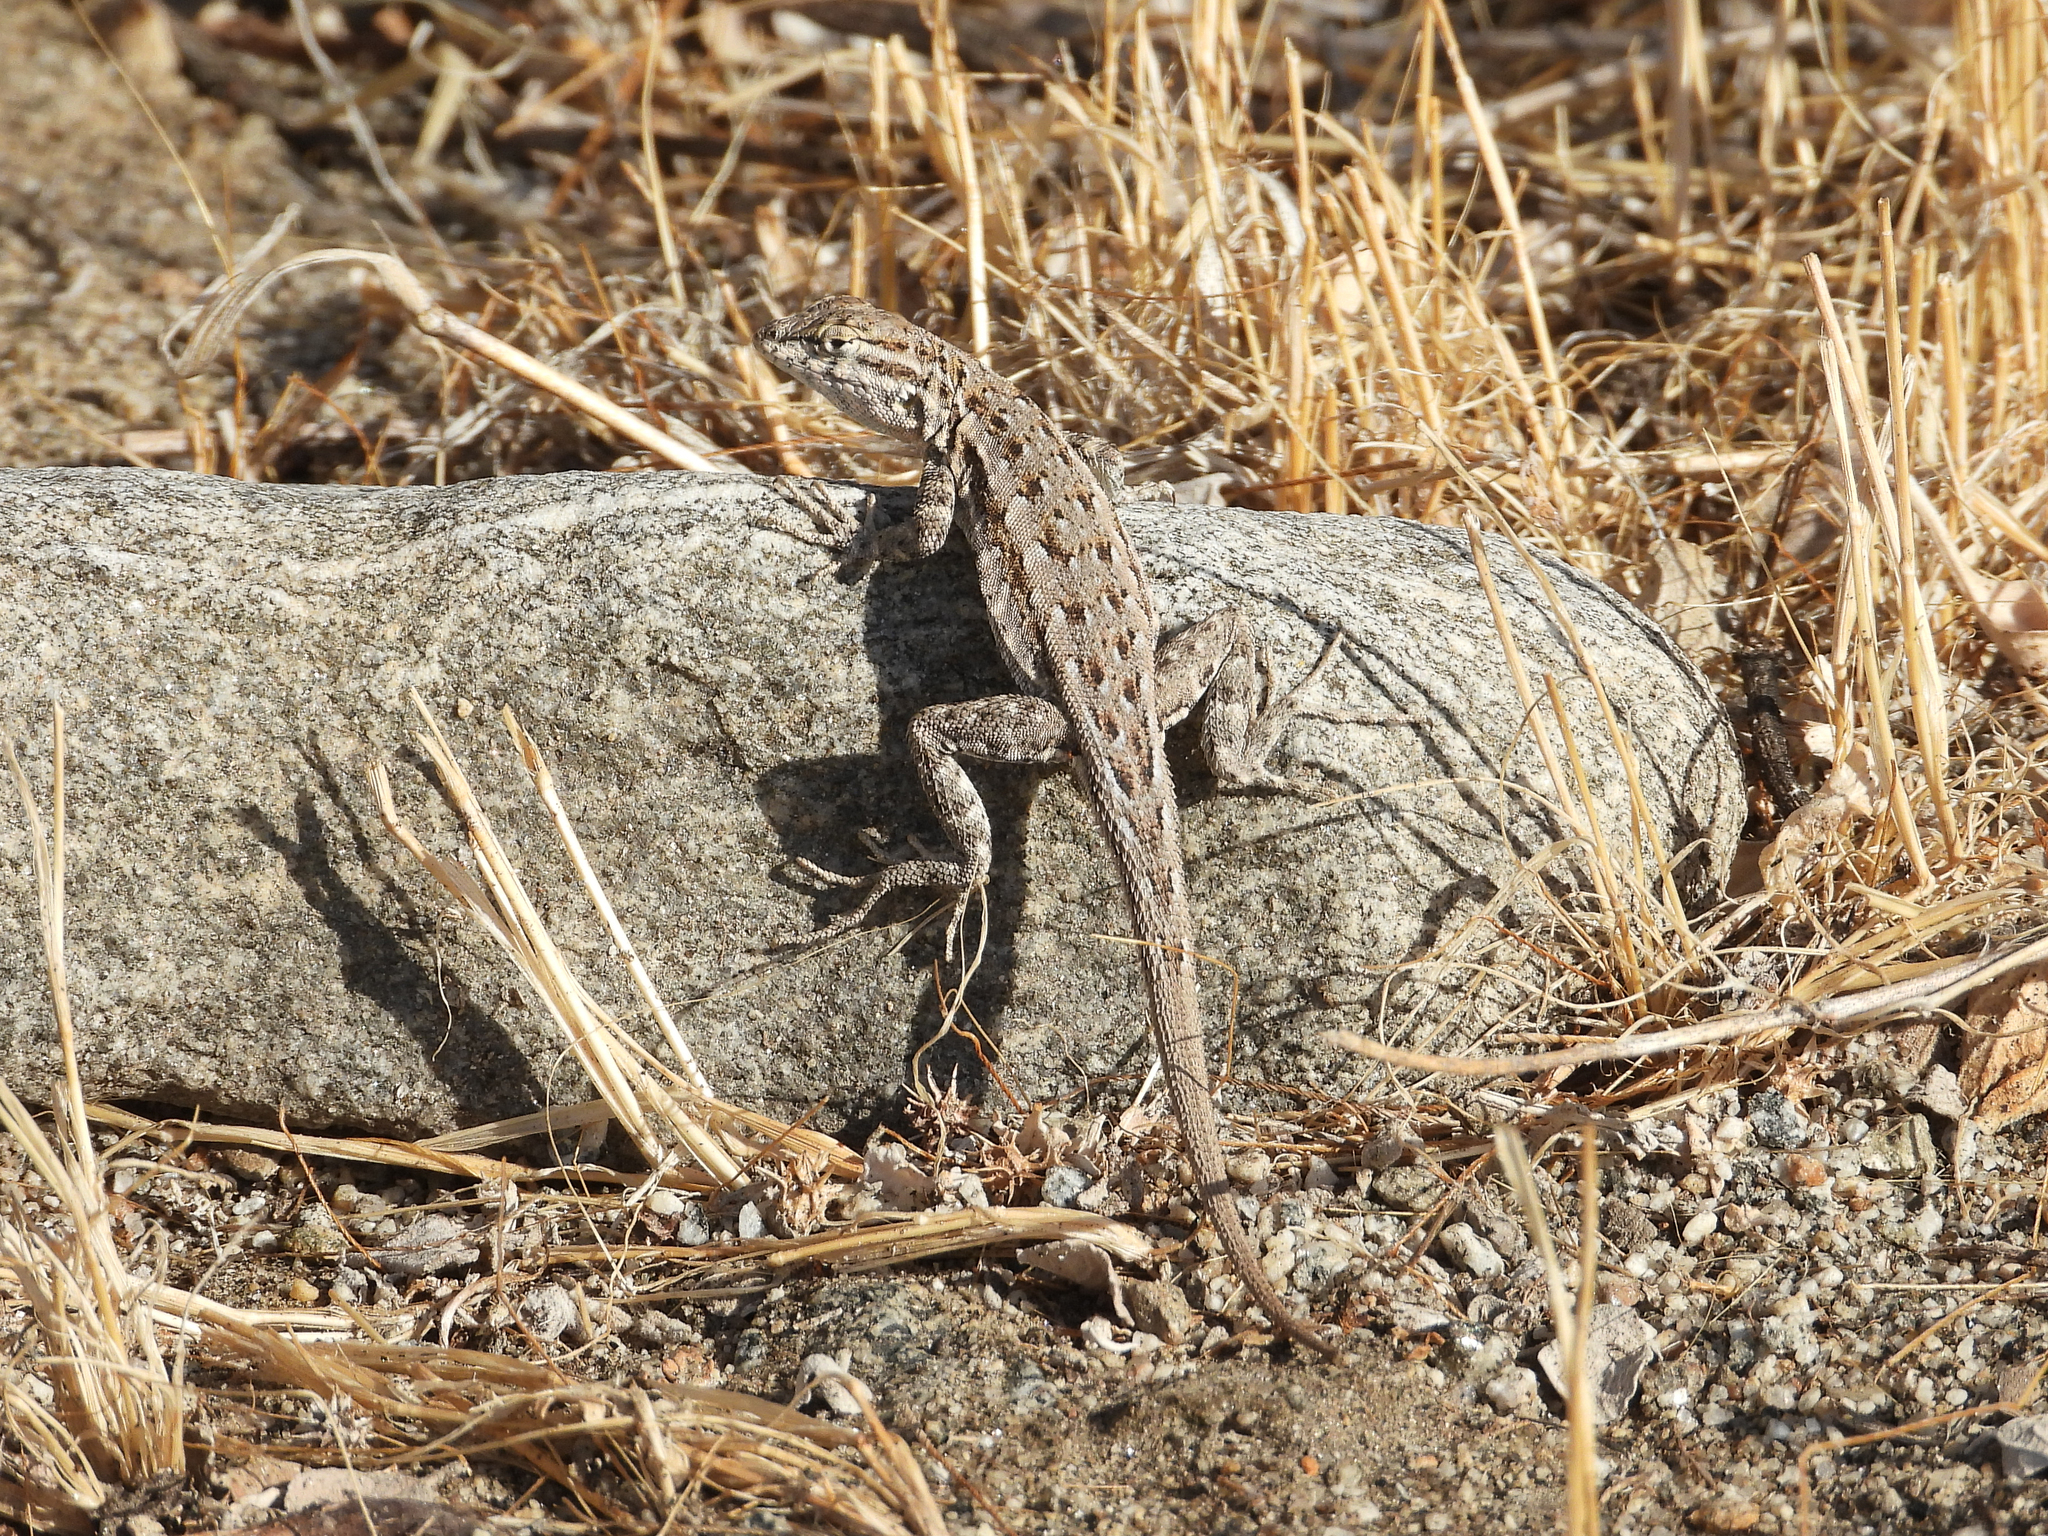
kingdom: Animalia
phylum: Chordata
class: Squamata
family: Phrynosomatidae
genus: Uta
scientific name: Uta stansburiana
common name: Side-blotched lizard
